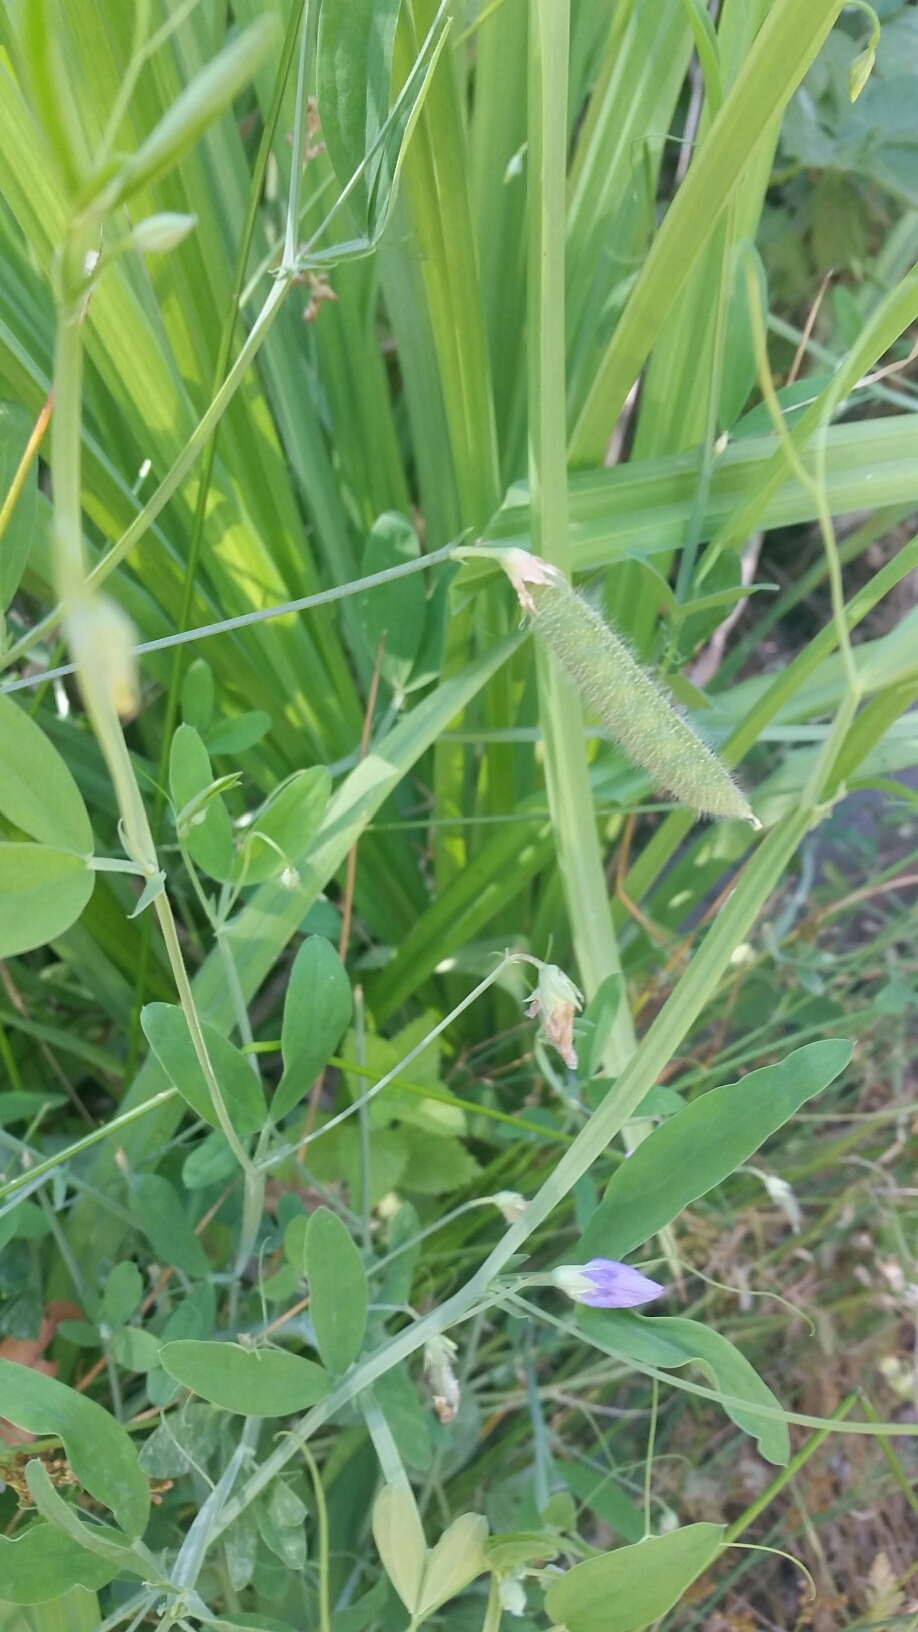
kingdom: Plantae
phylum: Tracheophyta
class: Magnoliopsida
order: Fabales
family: Fabaceae
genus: Lathyrus
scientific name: Lathyrus hirsutus
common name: Hairy vetchling
